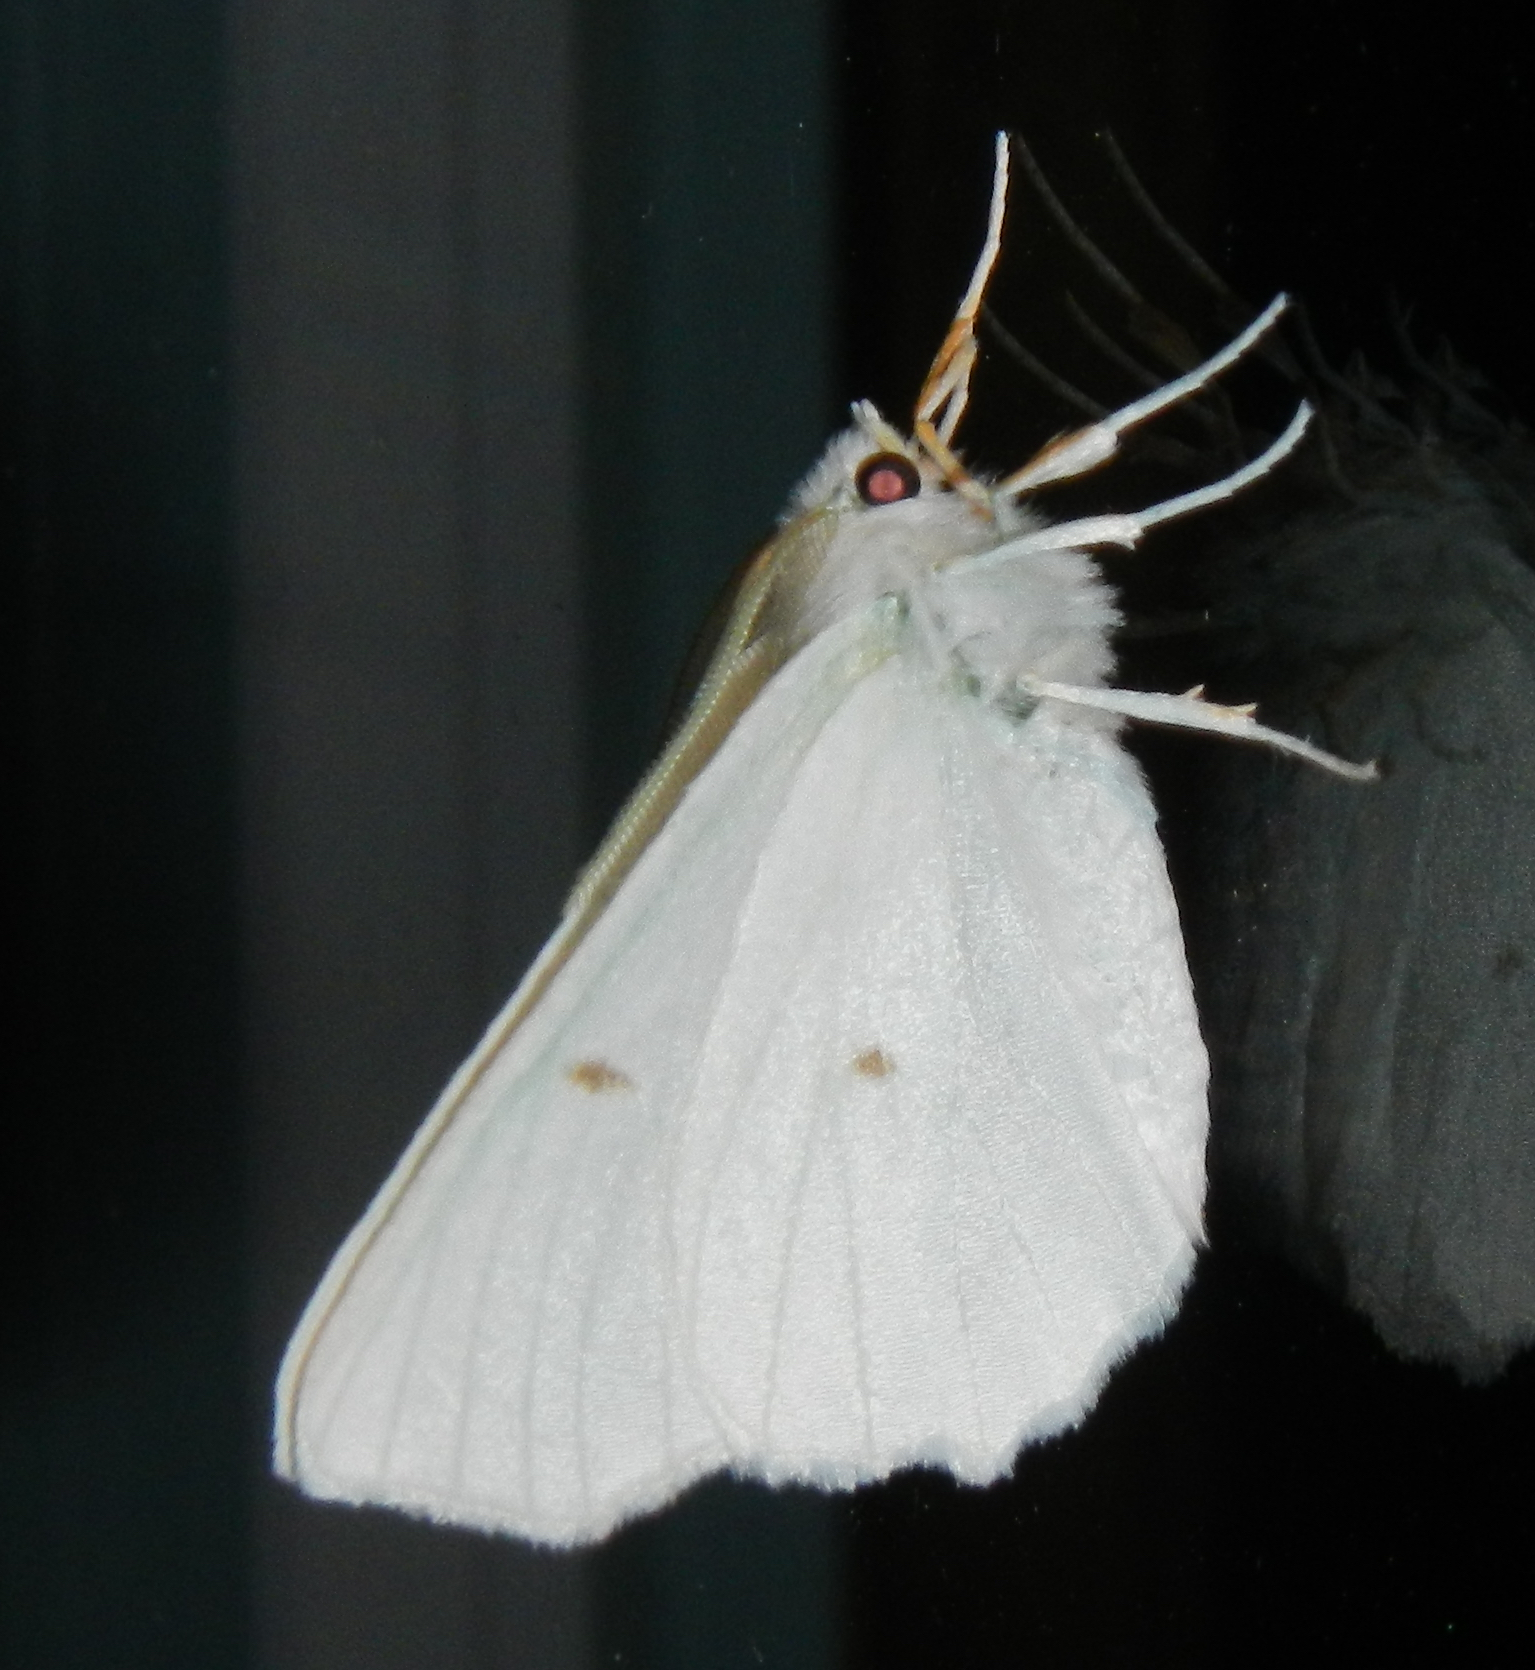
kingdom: Animalia
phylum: Arthropoda
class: Insecta
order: Lepidoptera
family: Geometridae
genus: Ennomos
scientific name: Ennomos subsignaria
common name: Elm spanworm
